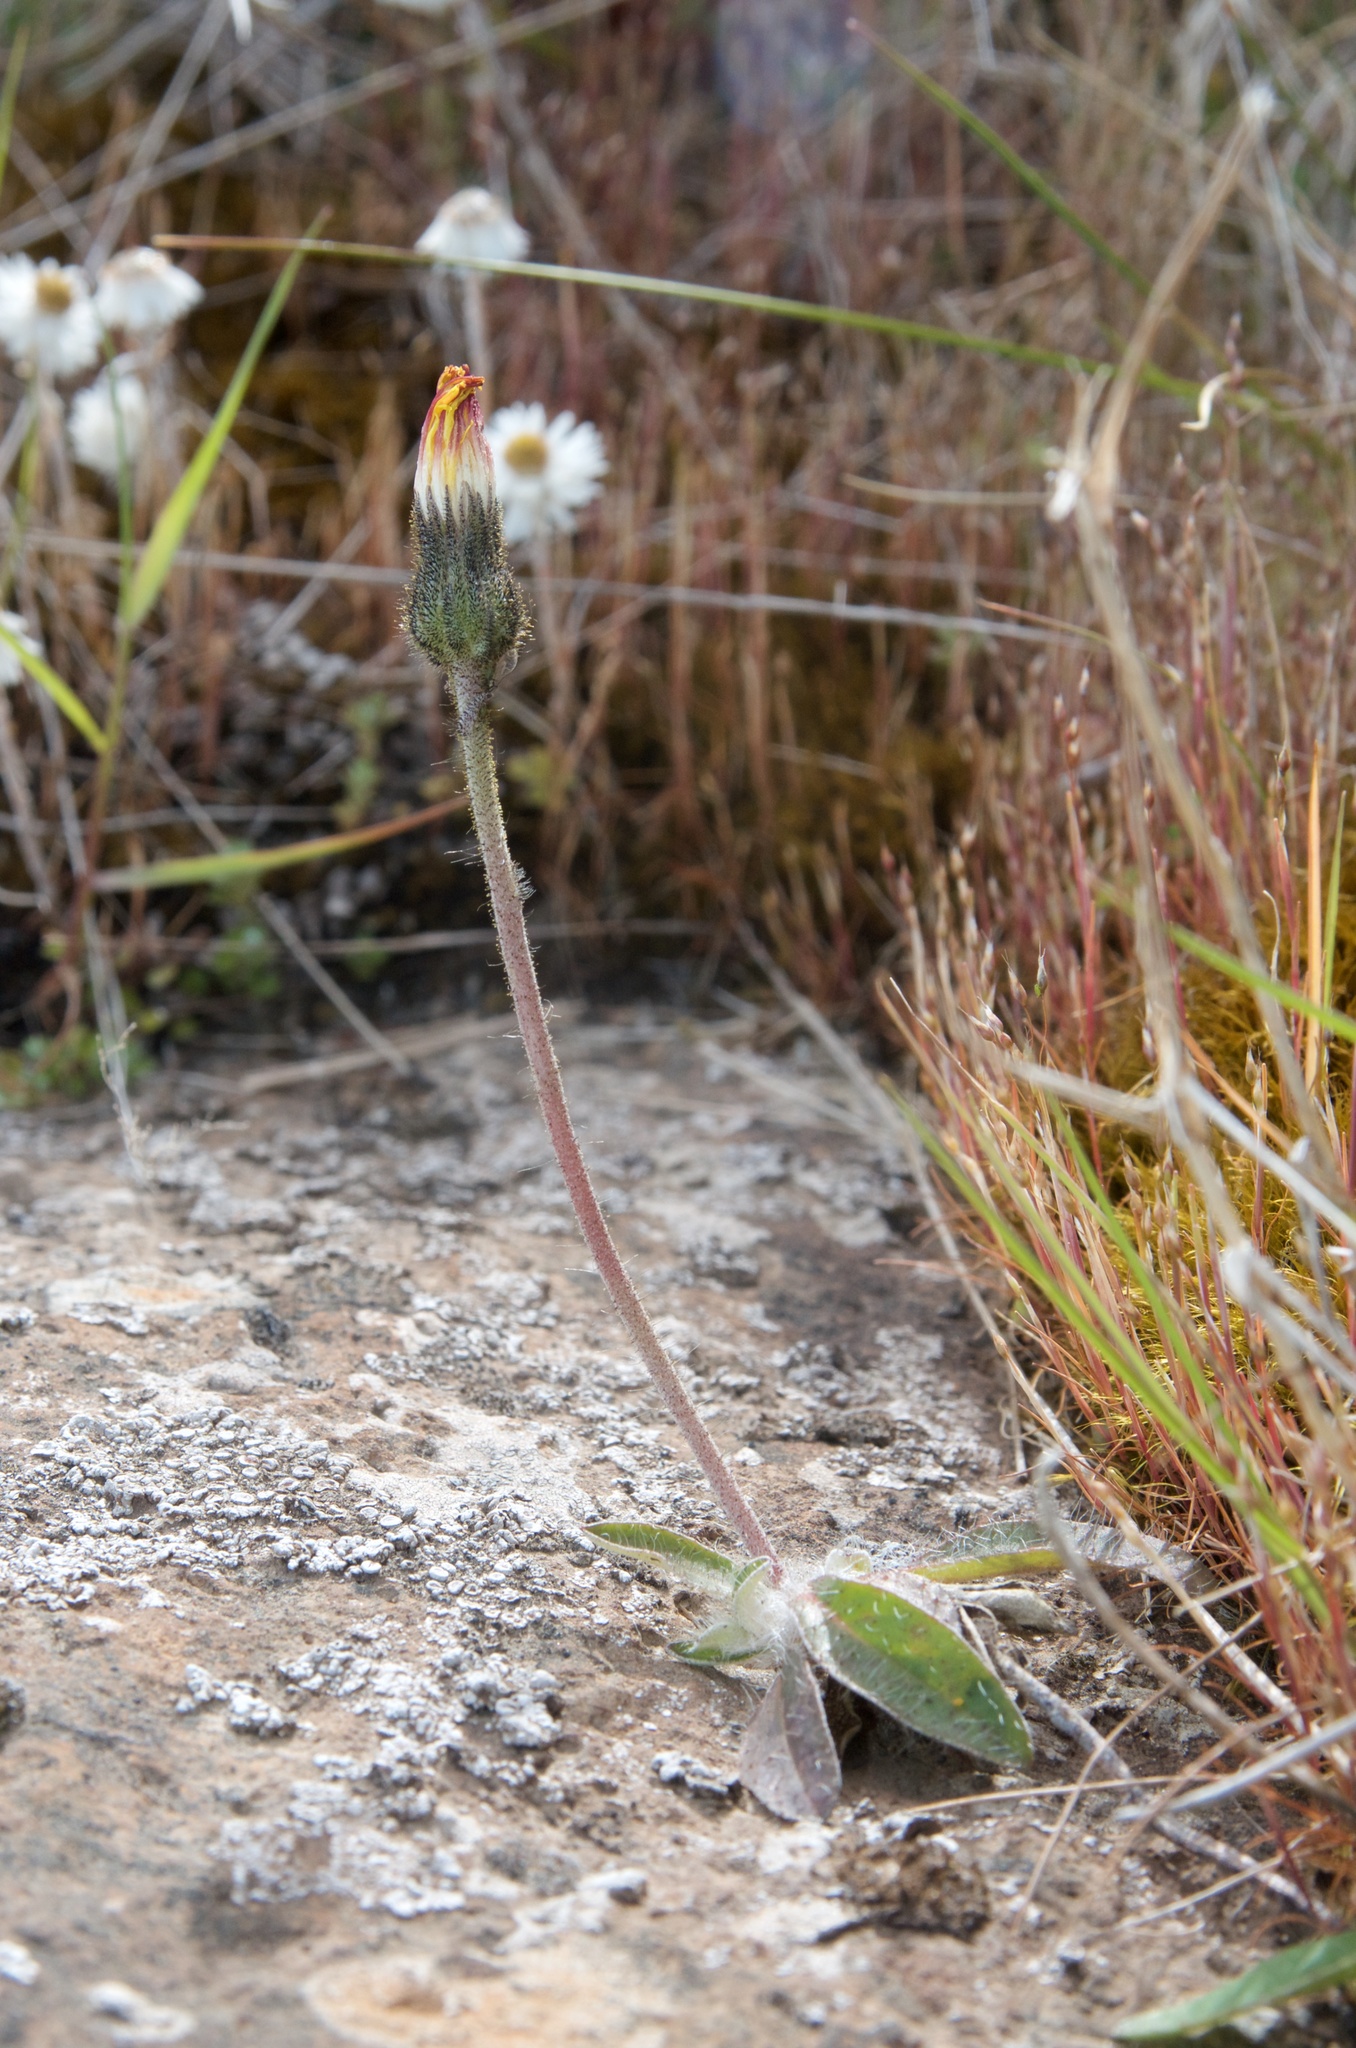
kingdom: Plantae
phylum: Tracheophyta
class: Magnoliopsida
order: Asterales
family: Asteraceae
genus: Pilosella
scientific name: Pilosella officinarum
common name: Mouse-ear hawkweed
